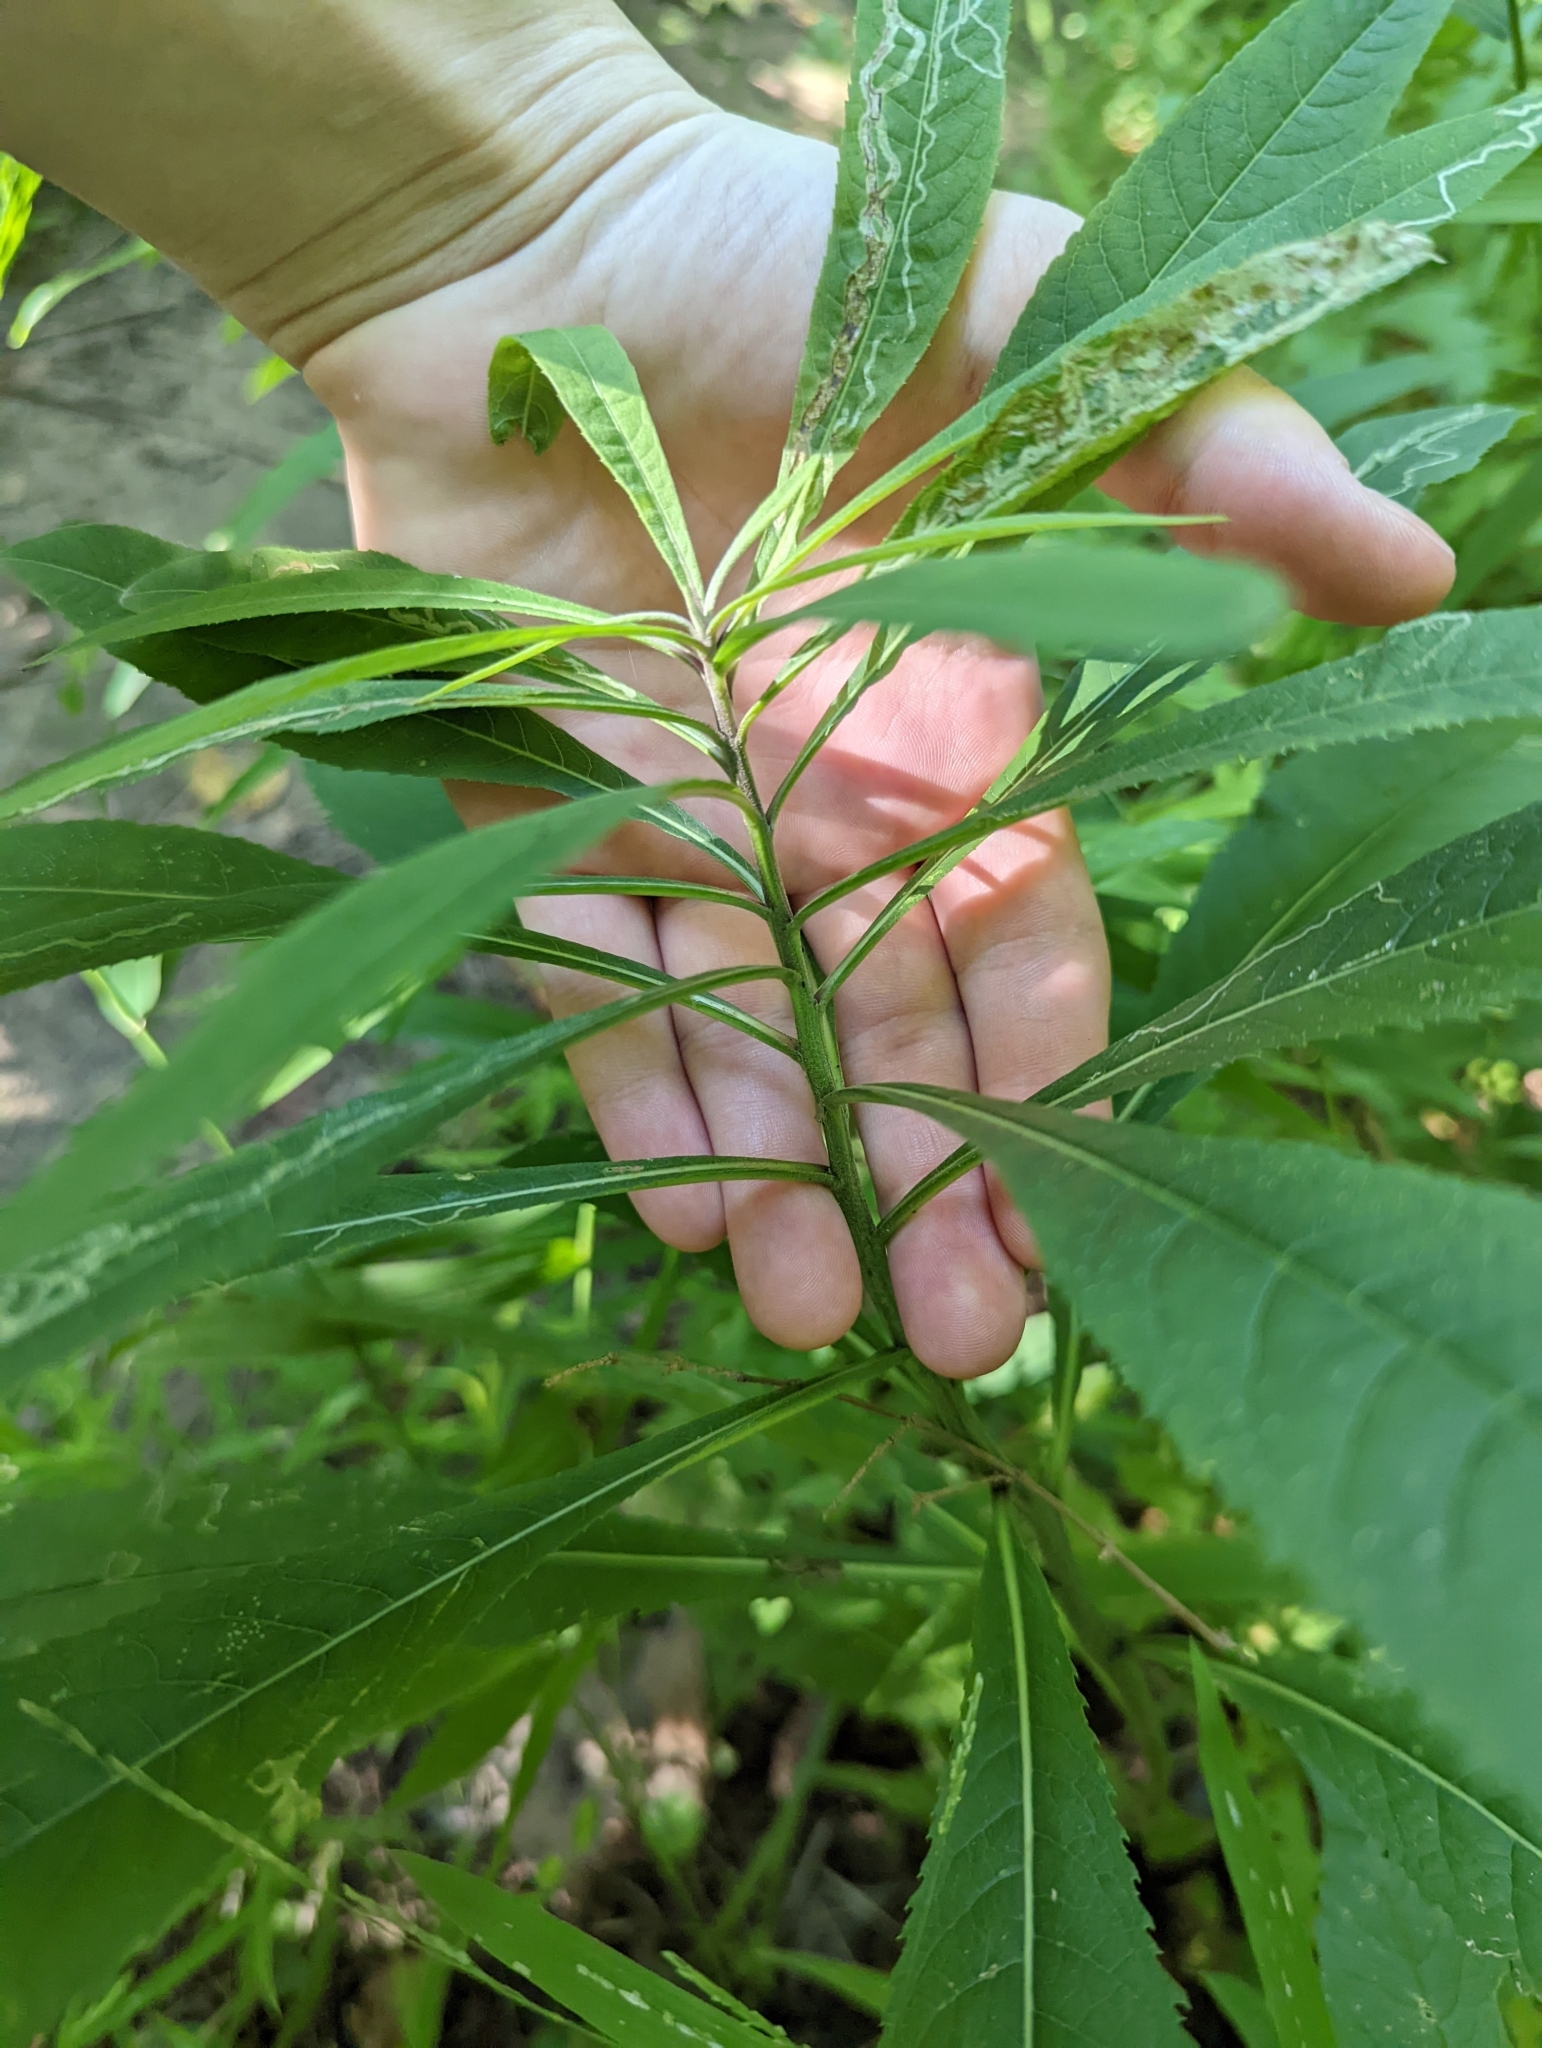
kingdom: Plantae
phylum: Tracheophyta
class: Magnoliopsida
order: Asterales
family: Asteraceae
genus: Vernonia
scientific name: Vernonia gigantea
